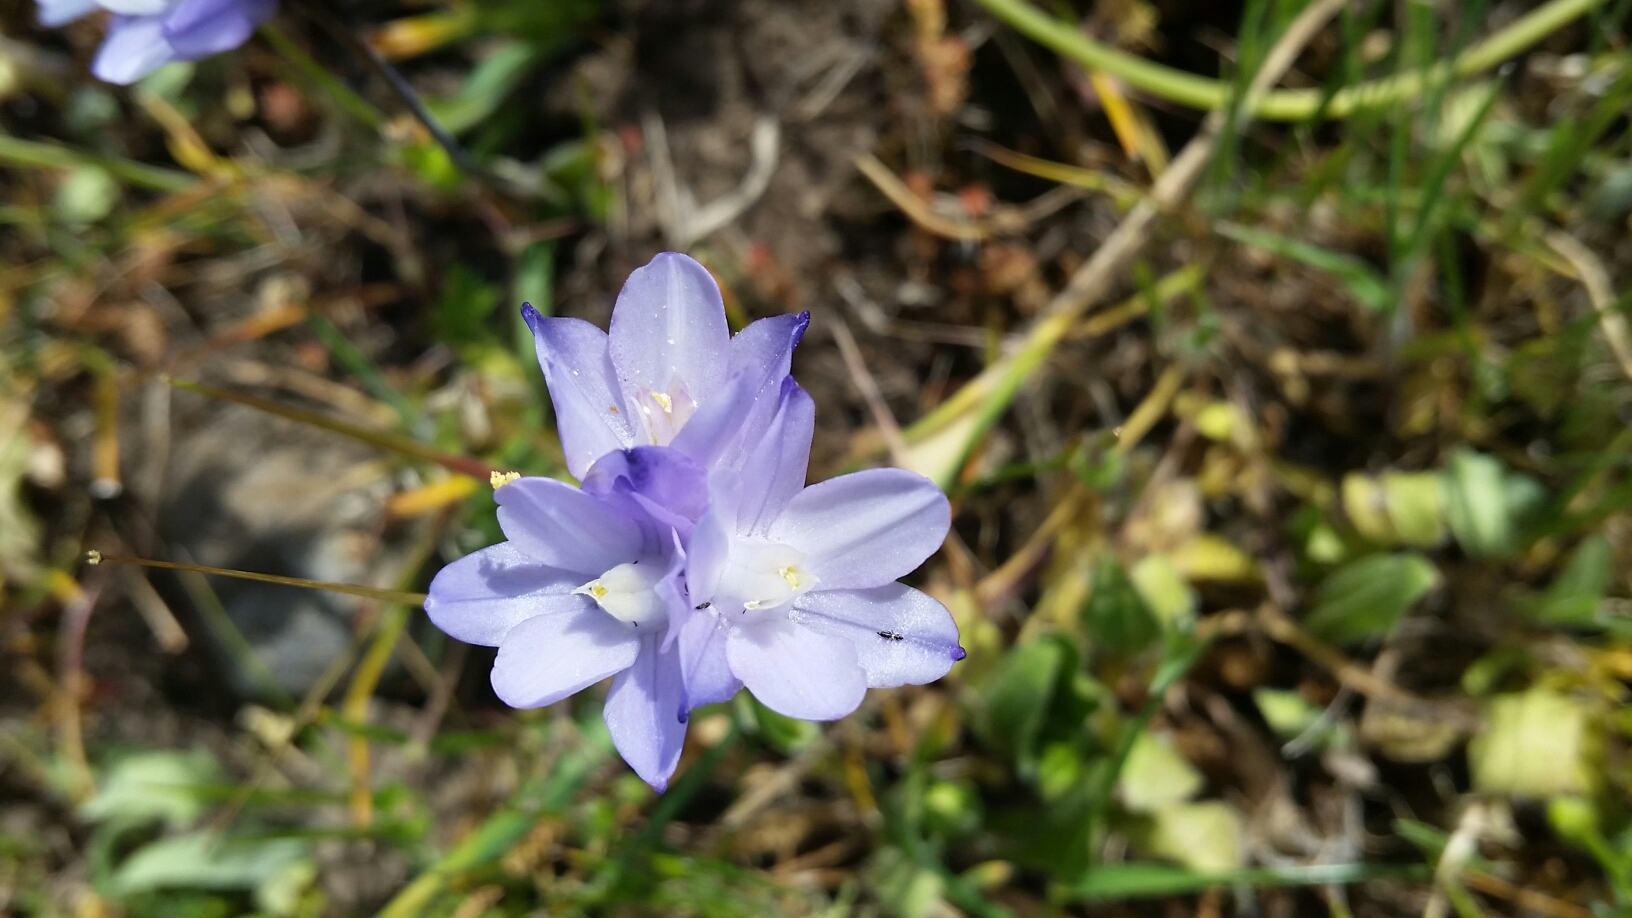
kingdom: Plantae
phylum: Tracheophyta
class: Liliopsida
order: Asparagales
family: Asparagaceae
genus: Dipterostemon
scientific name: Dipterostemon capitatus
